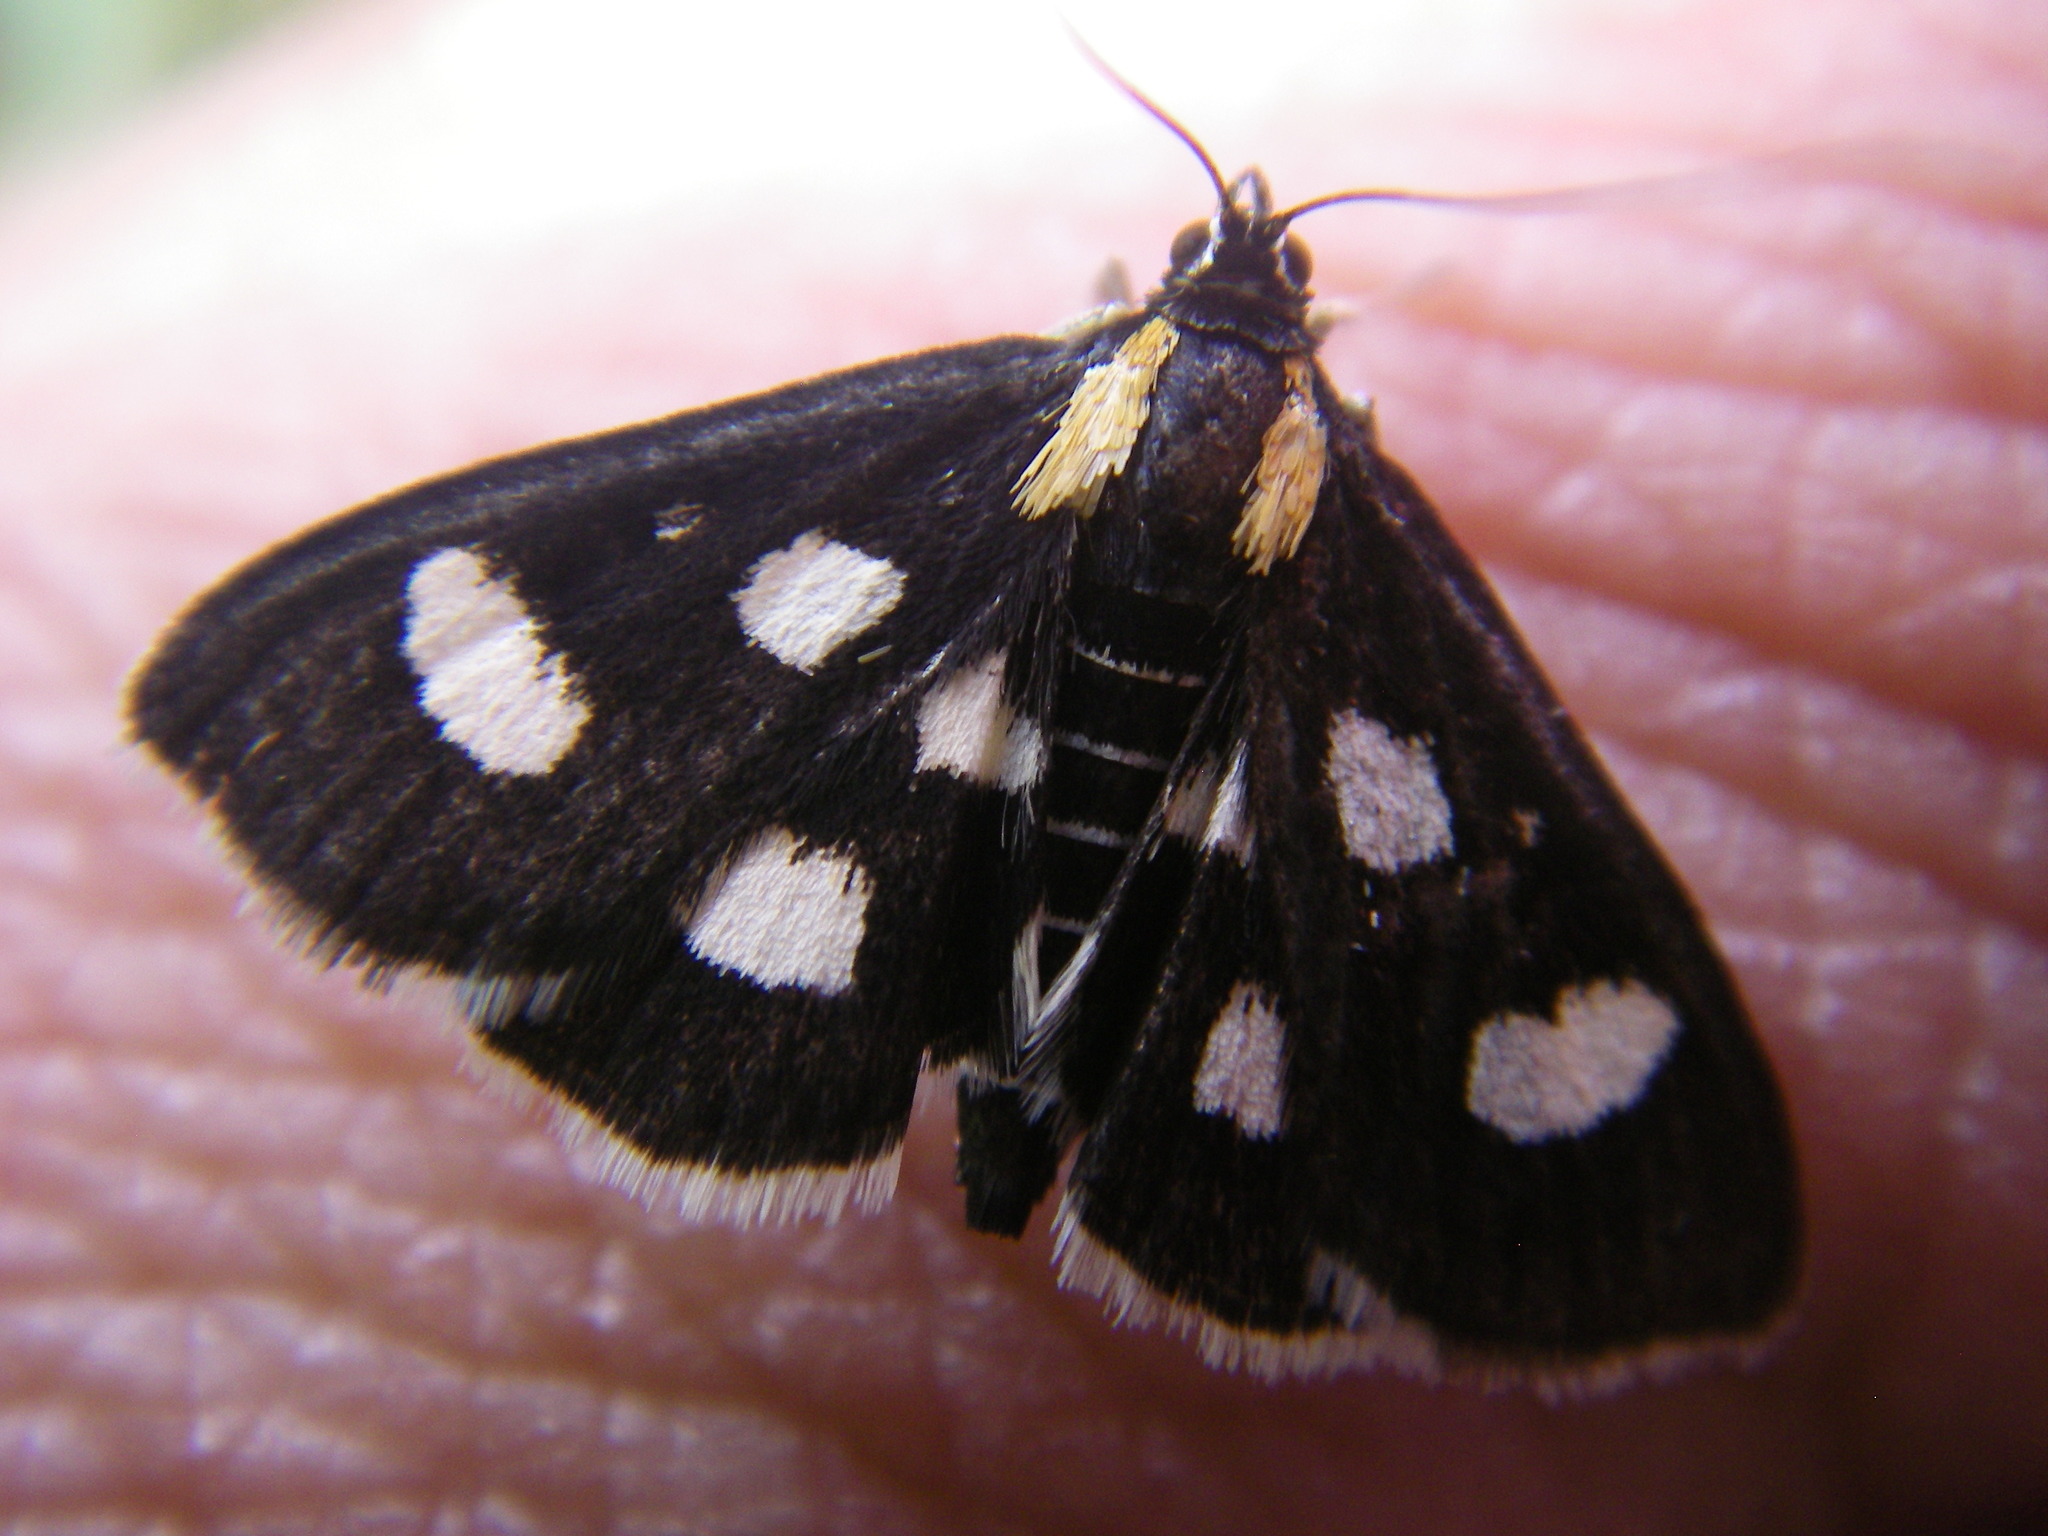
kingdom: Animalia
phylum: Arthropoda
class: Insecta
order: Lepidoptera
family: Crambidae
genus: Anania
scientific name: Anania funebris
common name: White-spotted sable moth
